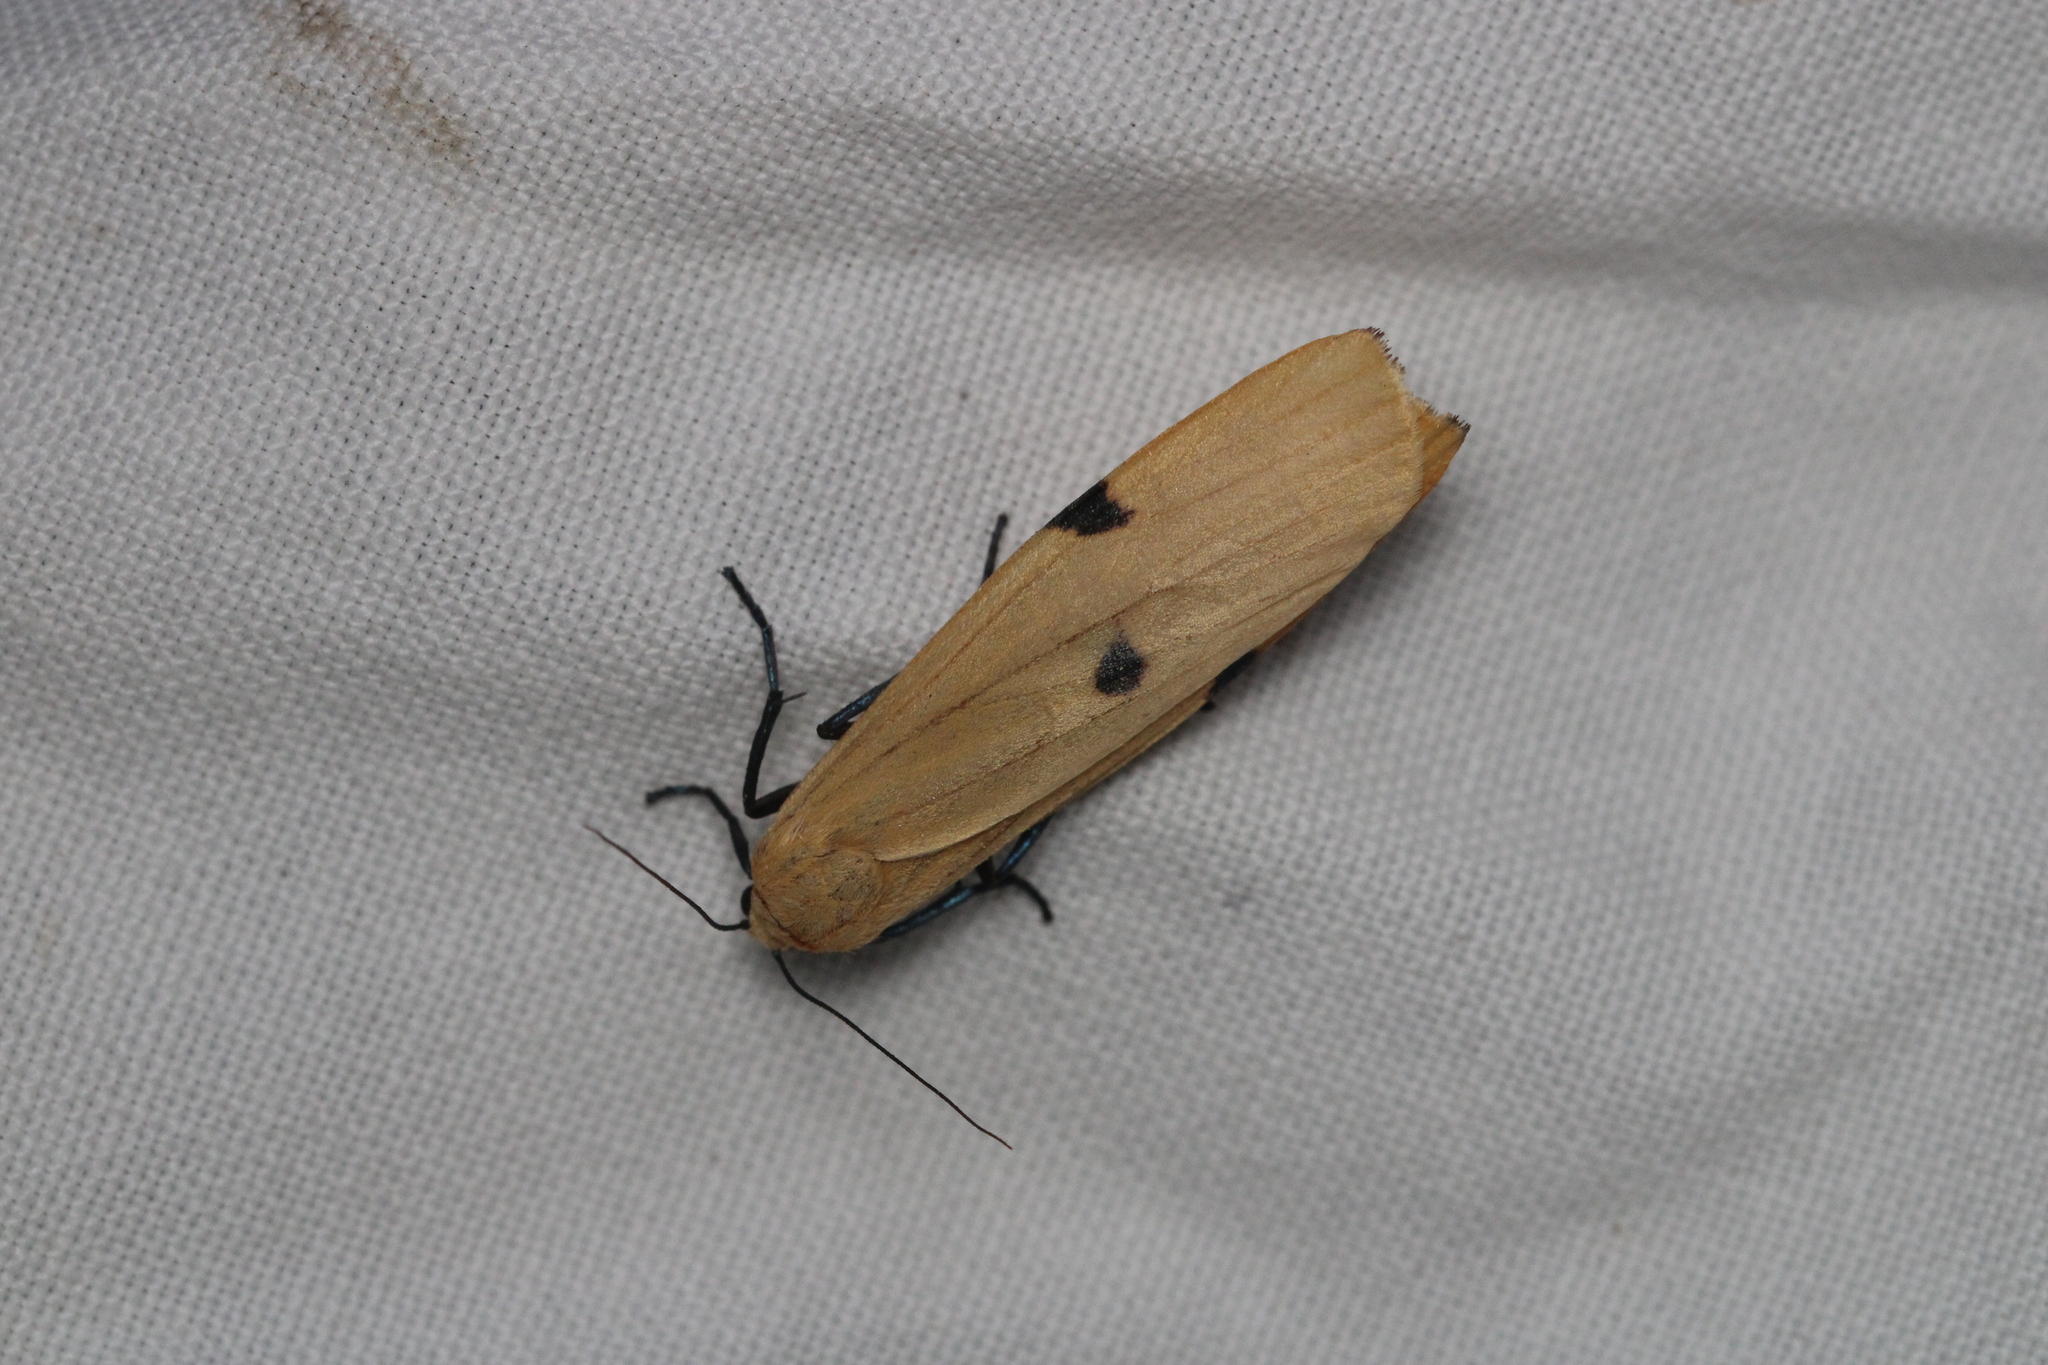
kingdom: Animalia
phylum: Arthropoda
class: Insecta
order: Lepidoptera
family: Erebidae
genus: Lithosia
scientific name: Lithosia quadra
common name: Four-spotted footman
